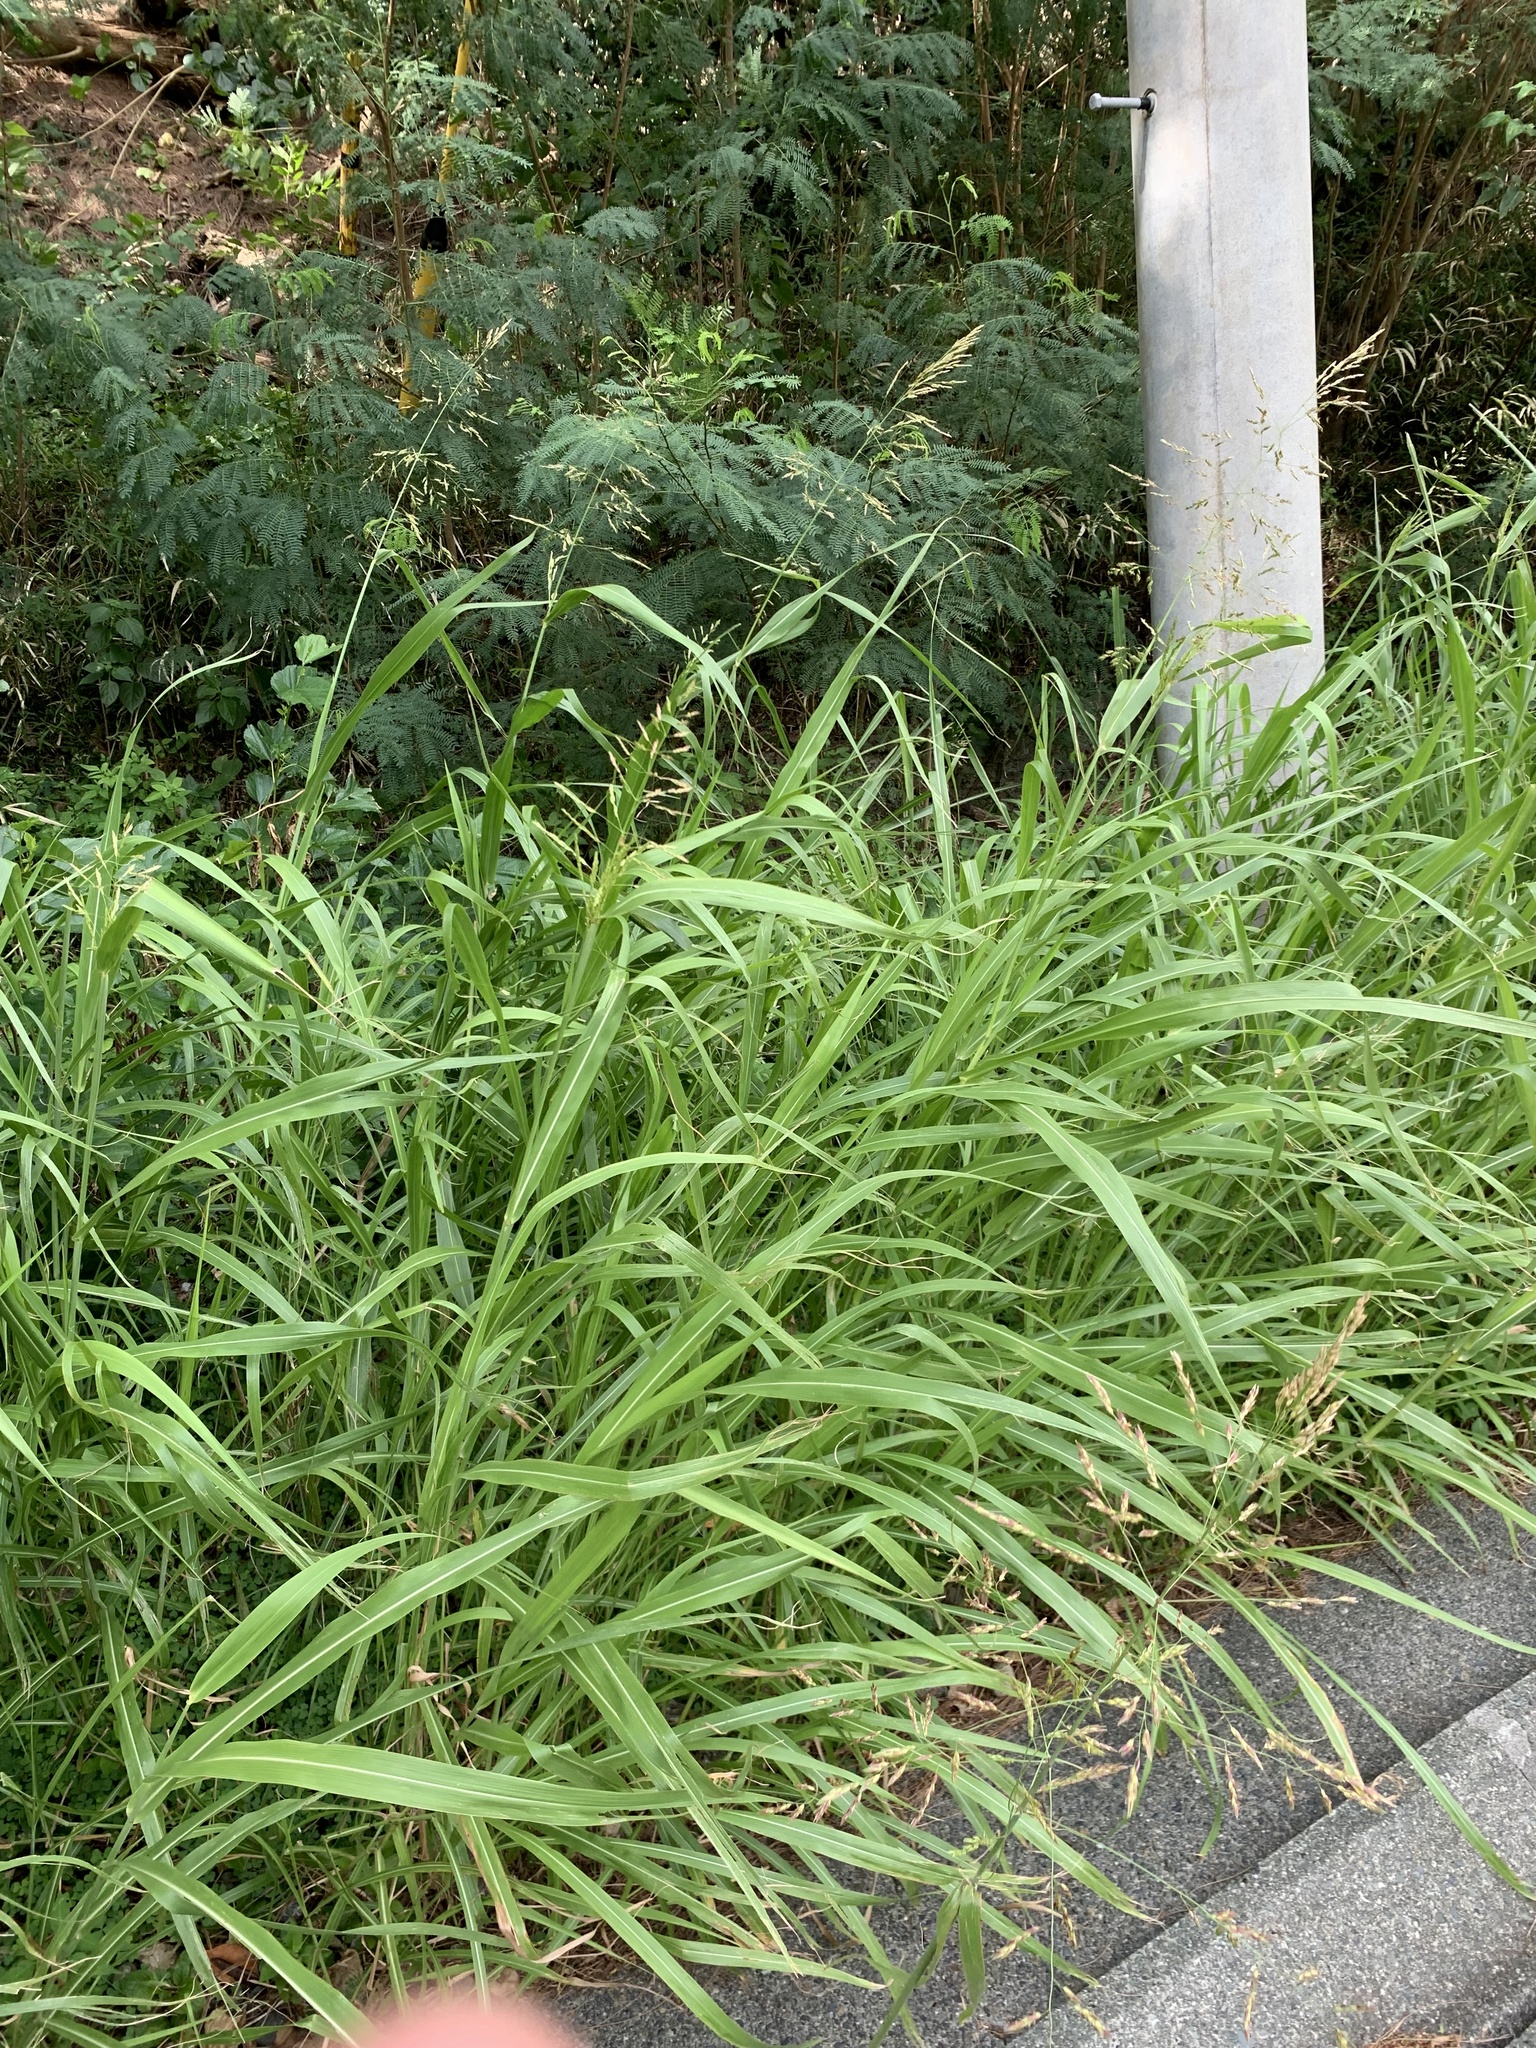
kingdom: Plantae
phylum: Tracheophyta
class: Liliopsida
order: Poales
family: Poaceae
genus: Sorghum
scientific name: Sorghum halepense
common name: Johnson-grass
